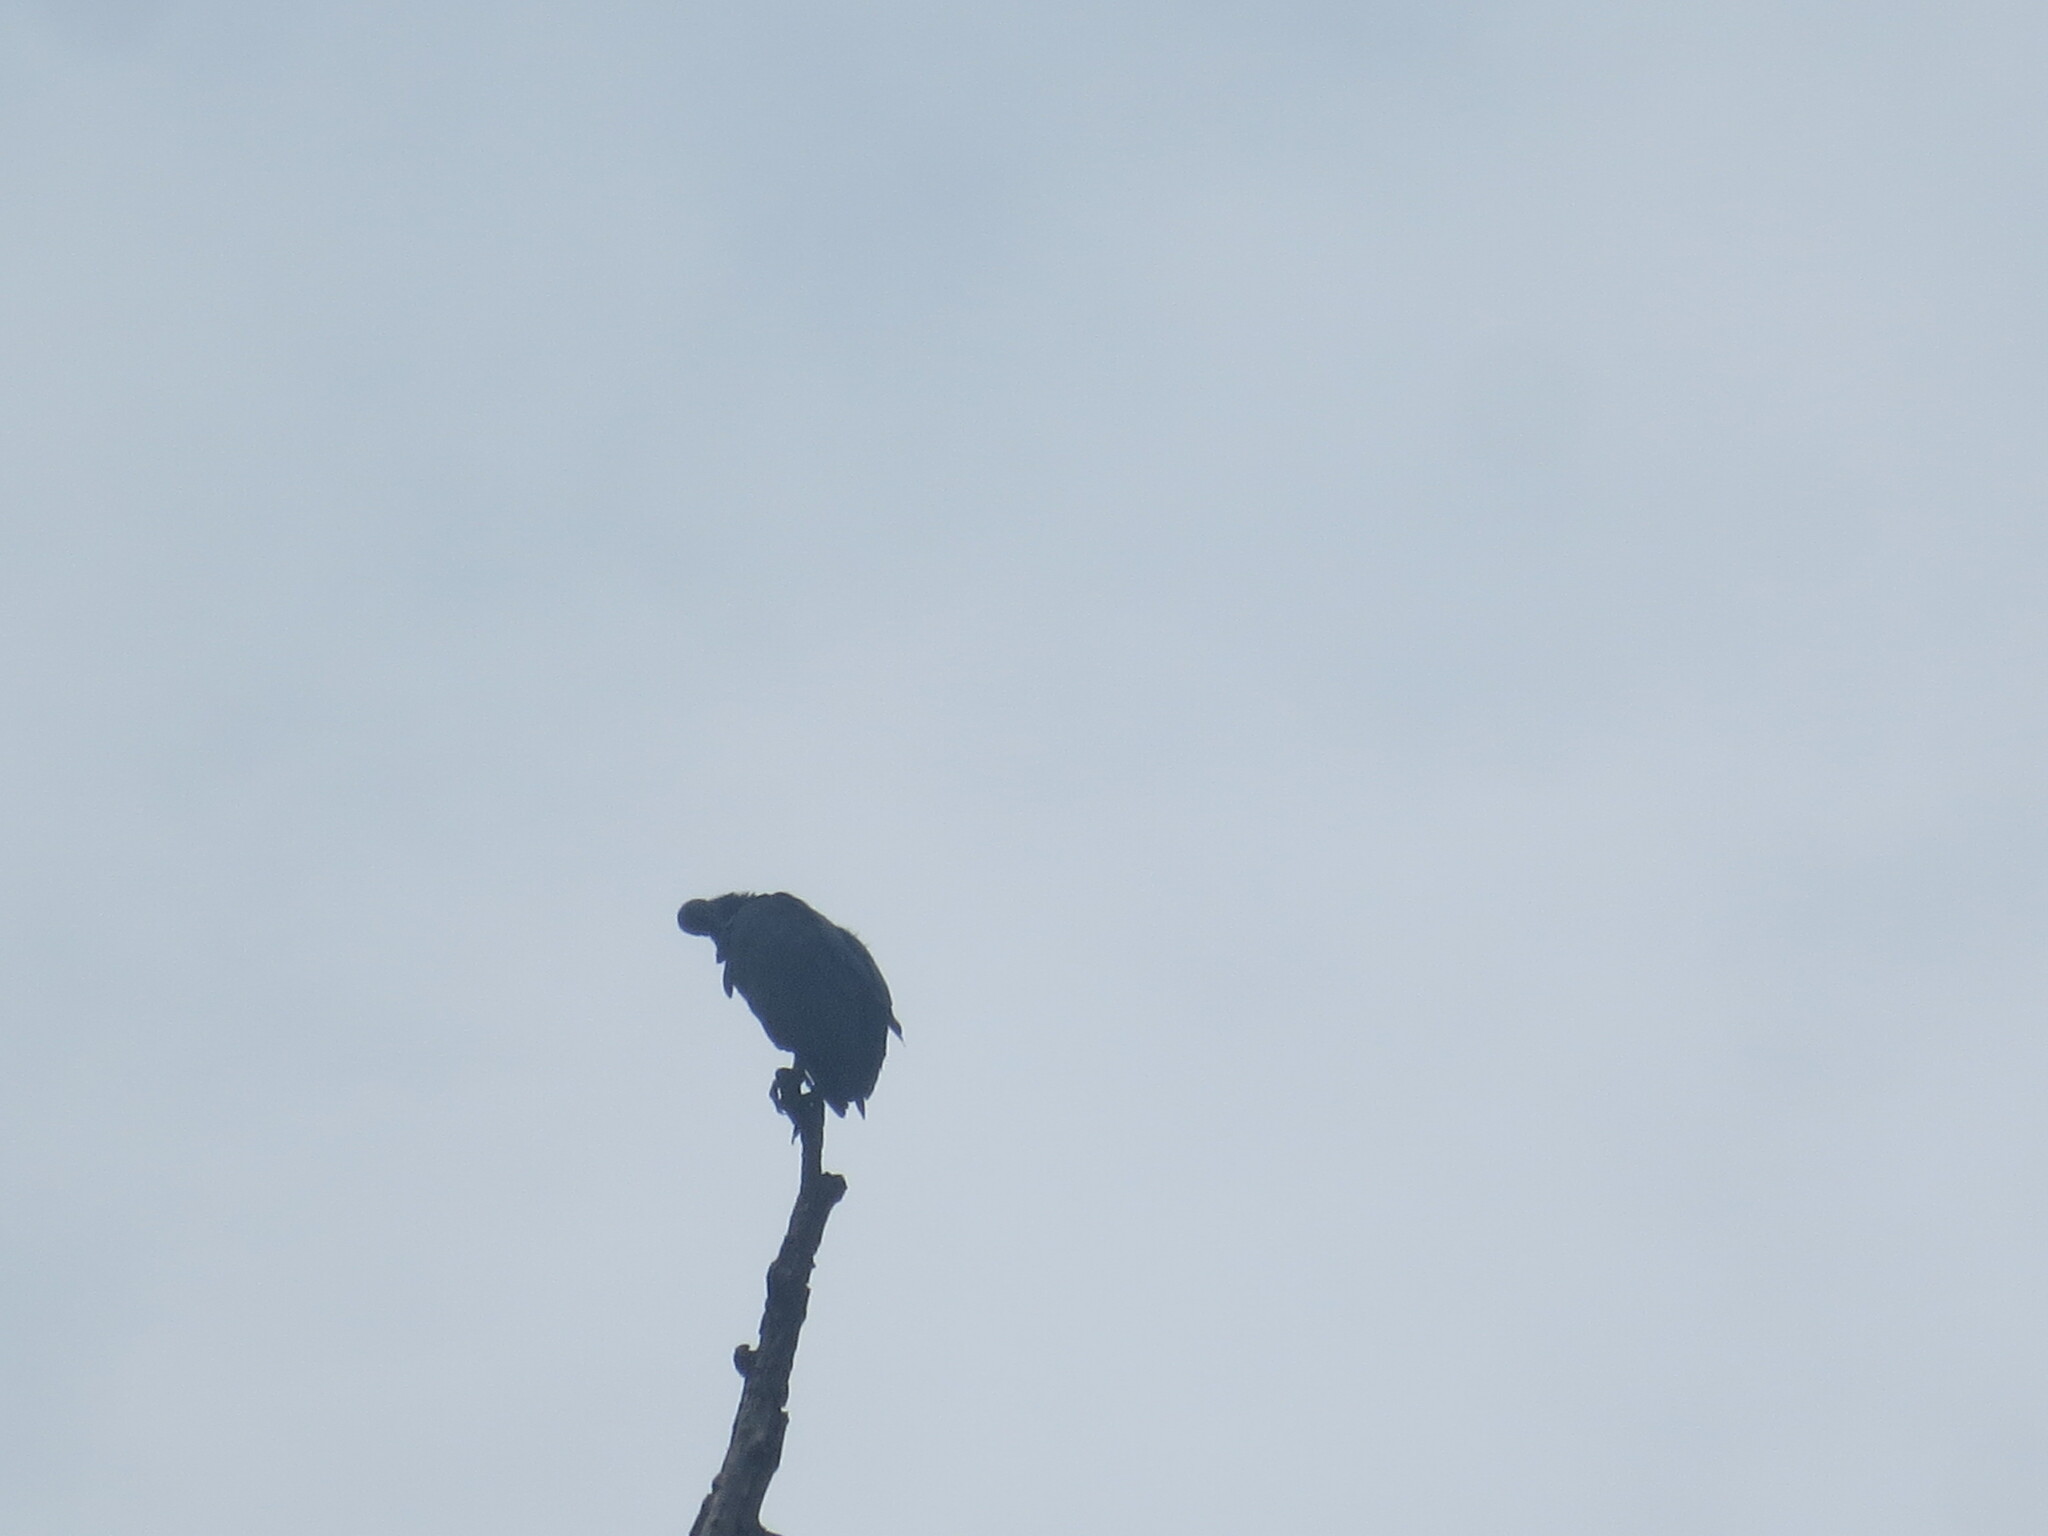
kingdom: Animalia
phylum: Chordata
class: Aves
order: Accipitriformes
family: Cathartidae
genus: Coragyps
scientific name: Coragyps atratus
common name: Black vulture
